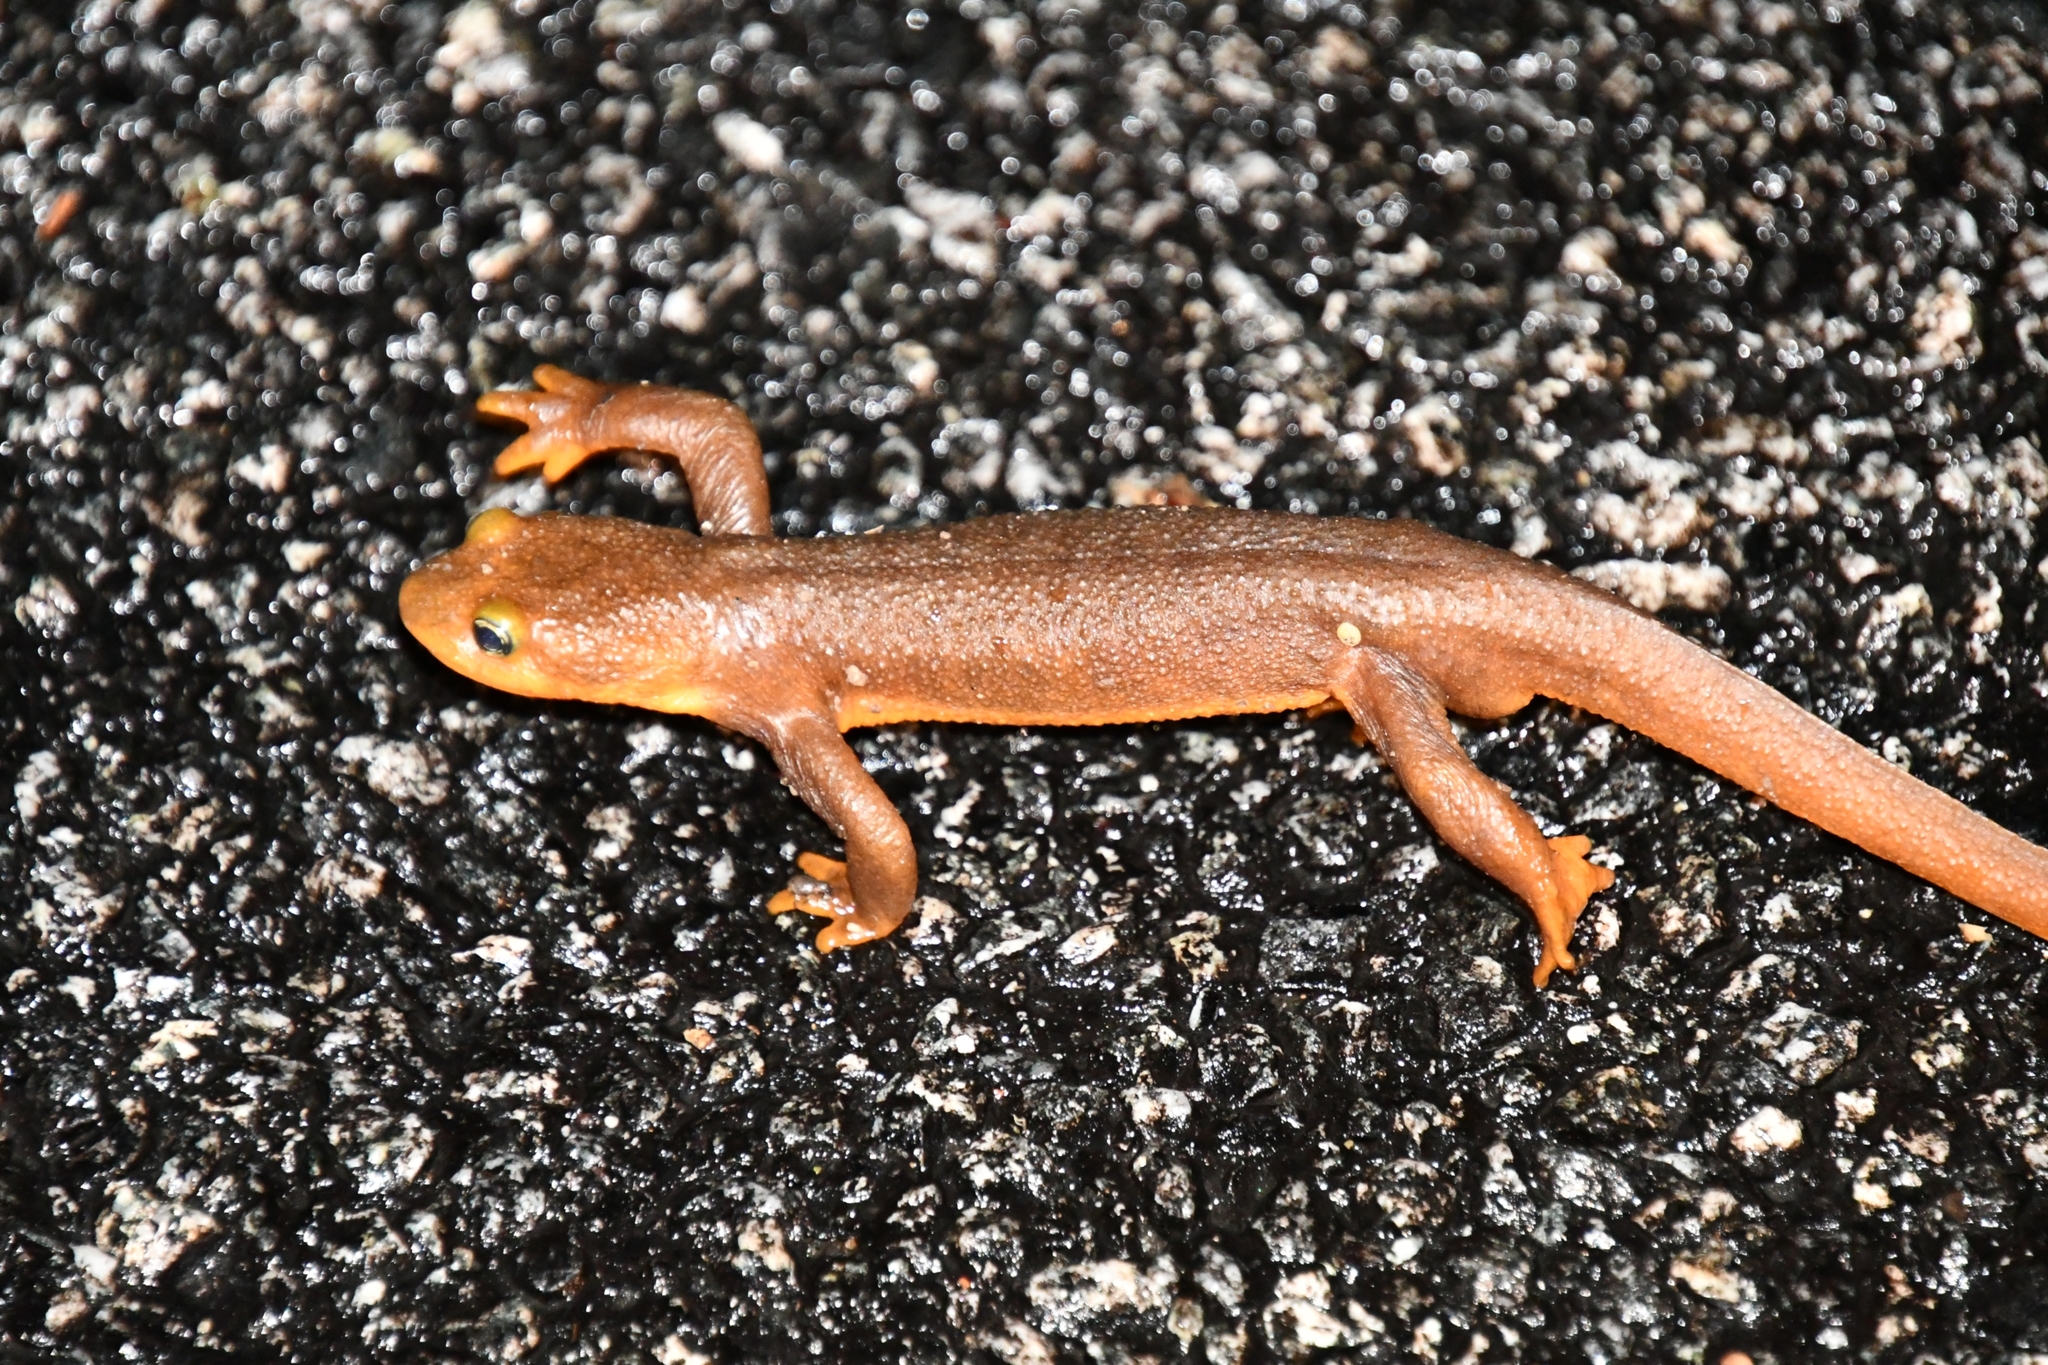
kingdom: Animalia
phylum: Chordata
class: Amphibia
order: Caudata
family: Salamandridae
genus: Taricha
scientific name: Taricha torosa
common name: California newt
